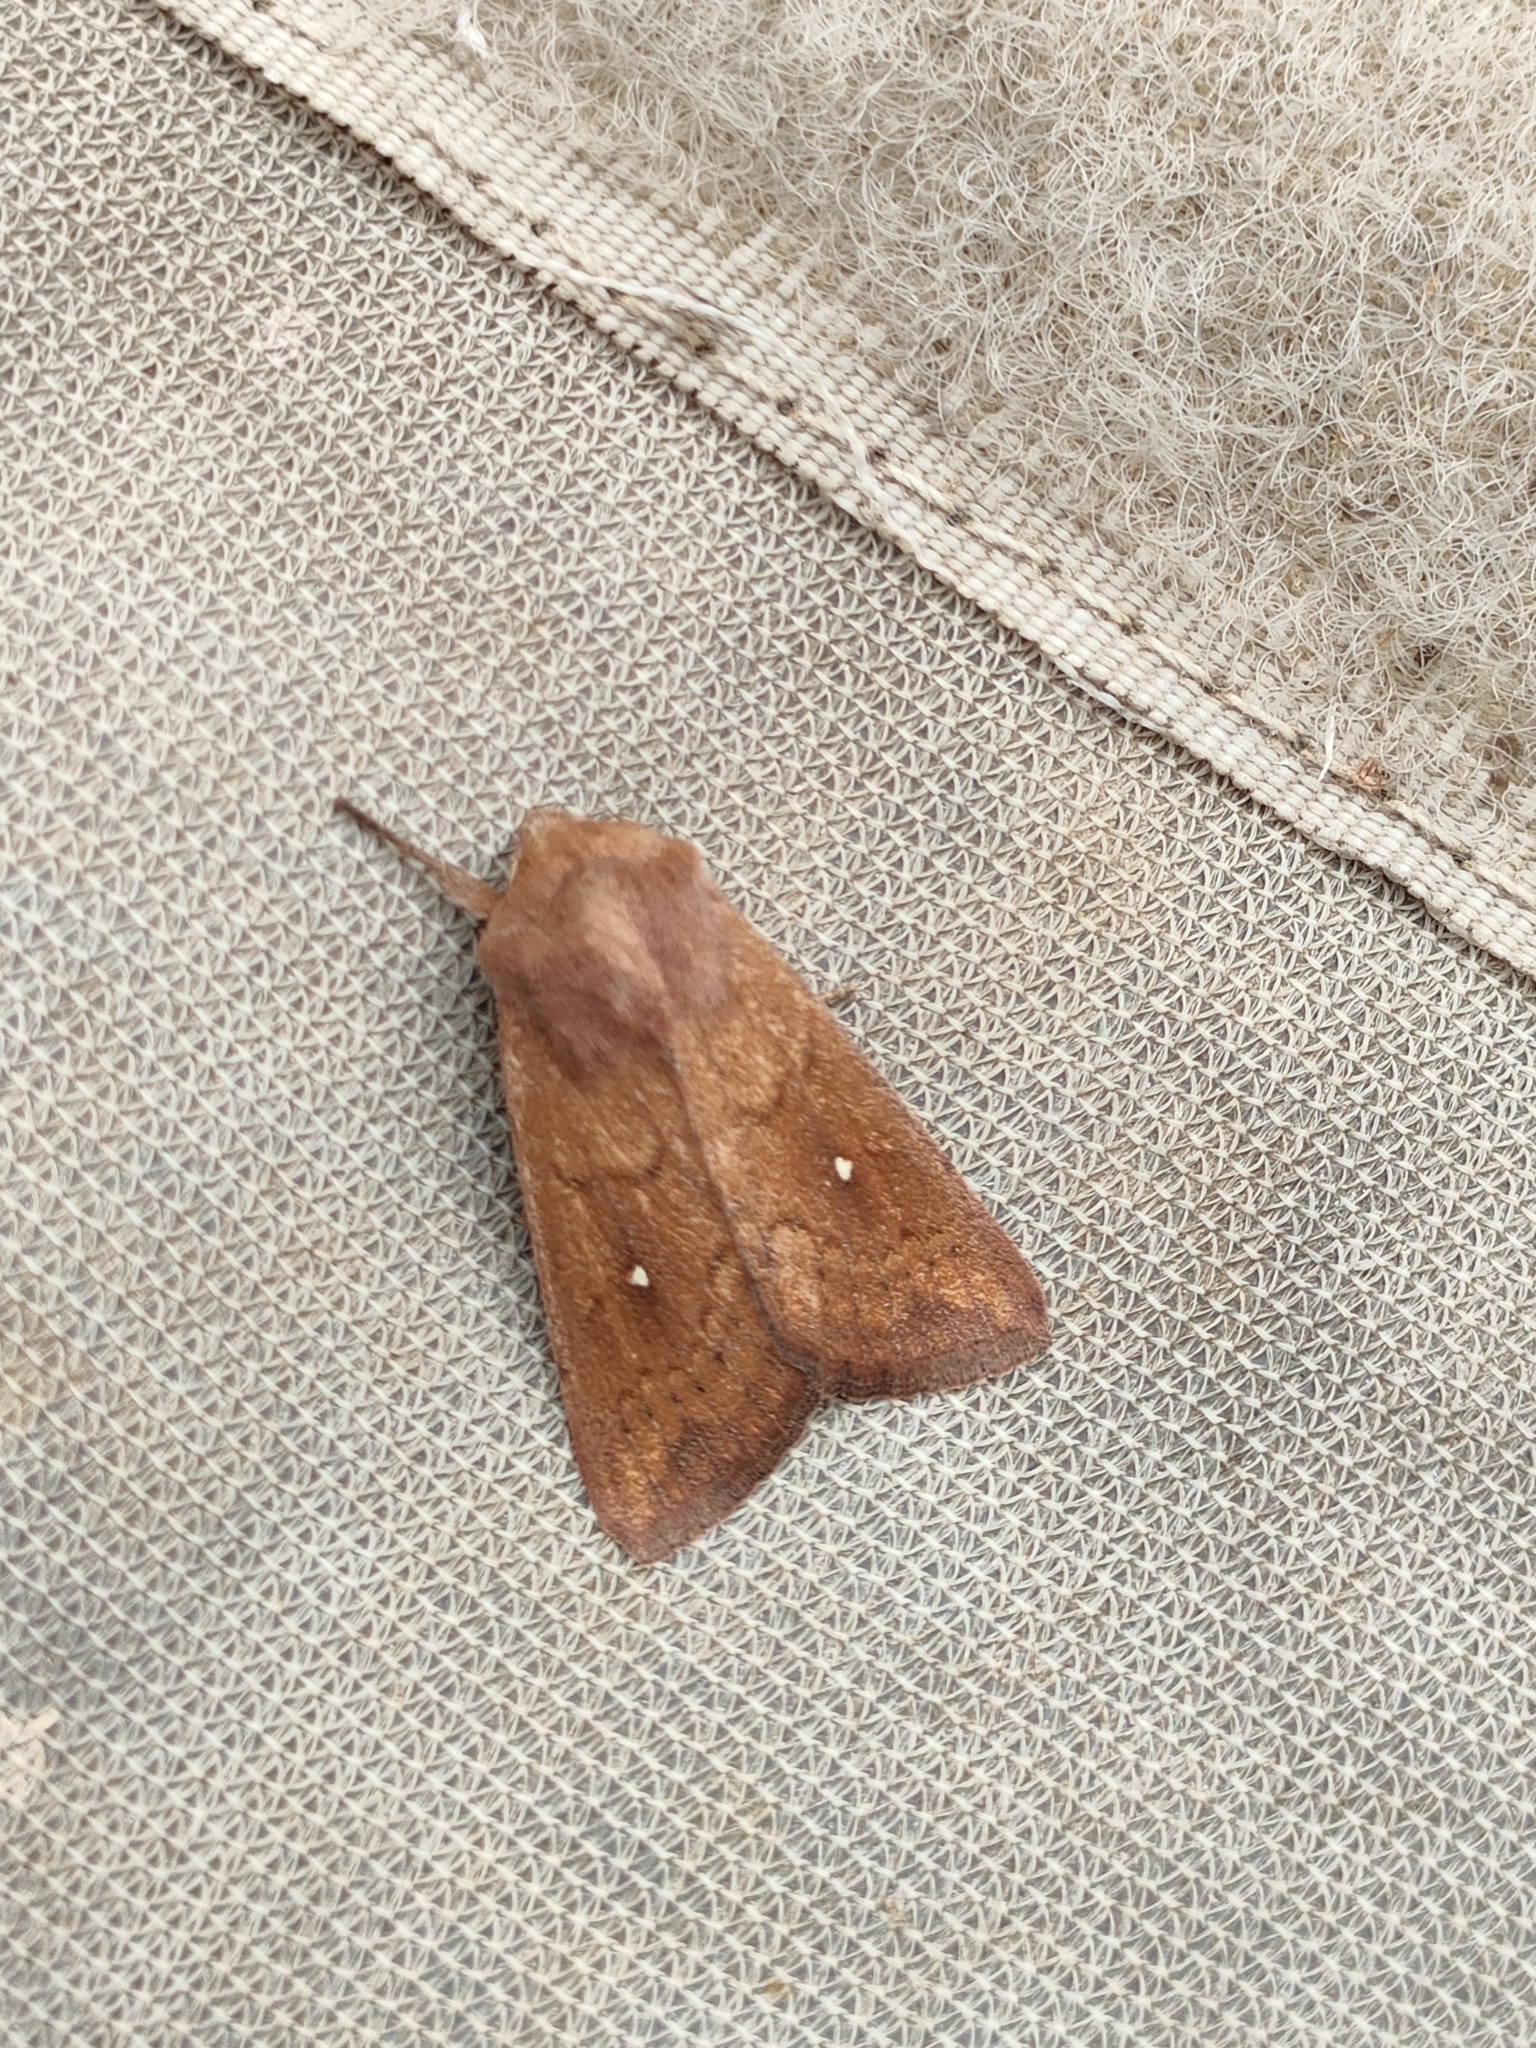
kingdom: Animalia
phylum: Arthropoda
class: Insecta
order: Lepidoptera
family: Noctuidae
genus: Mythimna
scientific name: Mythimna albipuncta
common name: White-point
